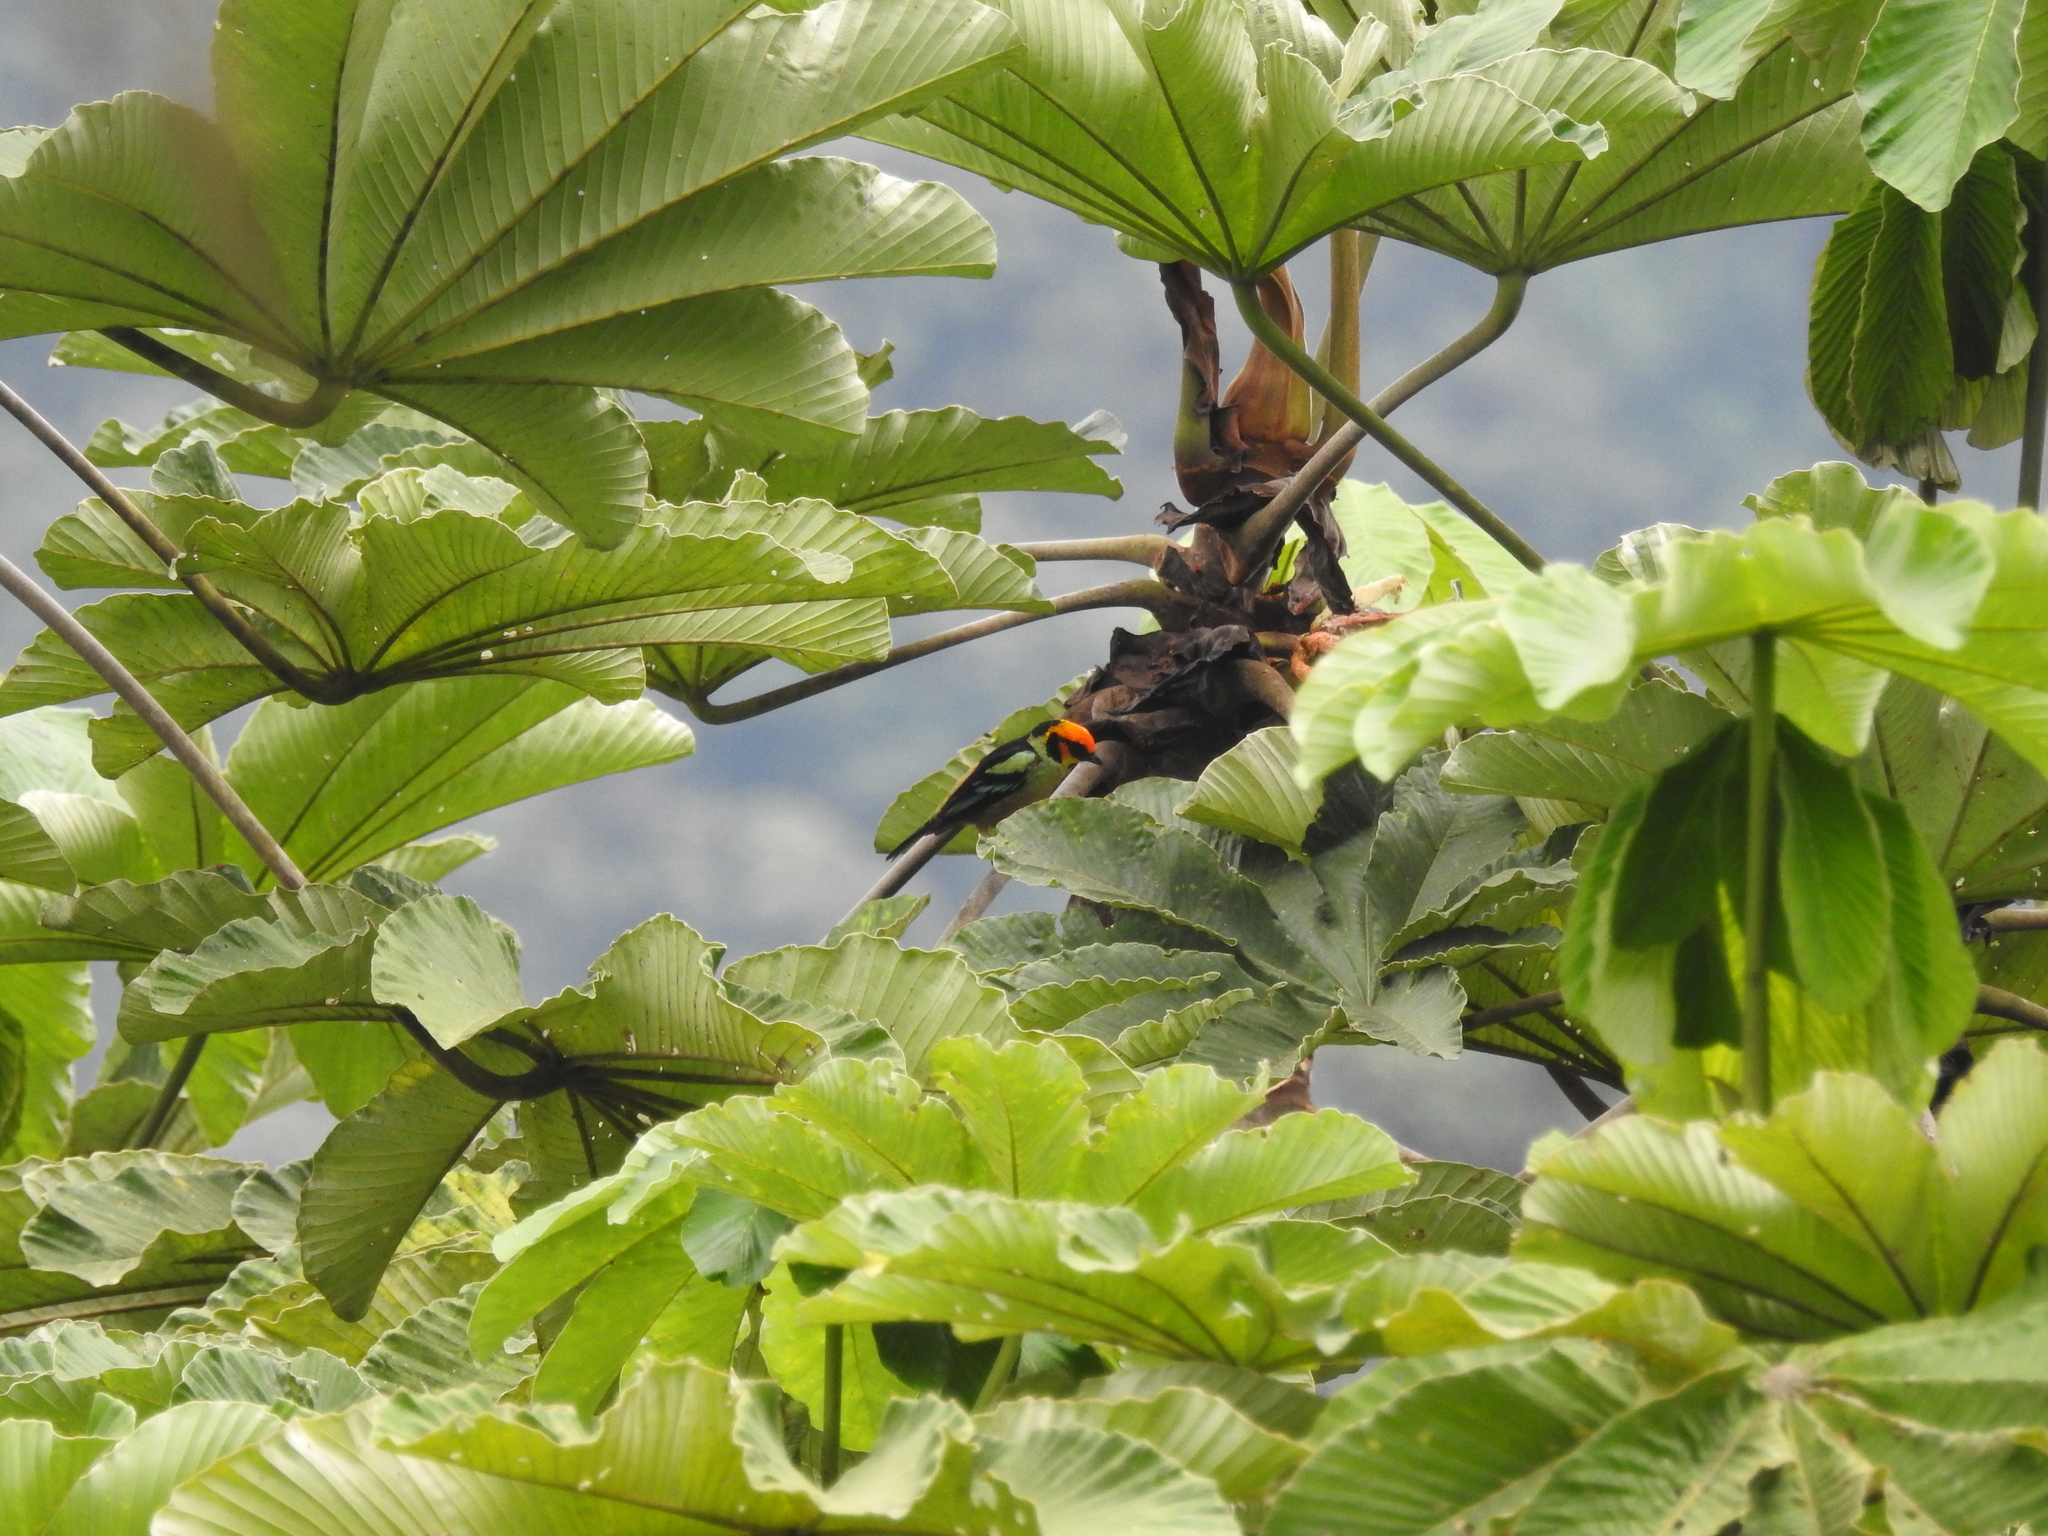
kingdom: Animalia
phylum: Chordata
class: Aves
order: Passeriformes
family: Thraupidae
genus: Tangara
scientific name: Tangara parzudakii
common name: Flame-faced tanager
